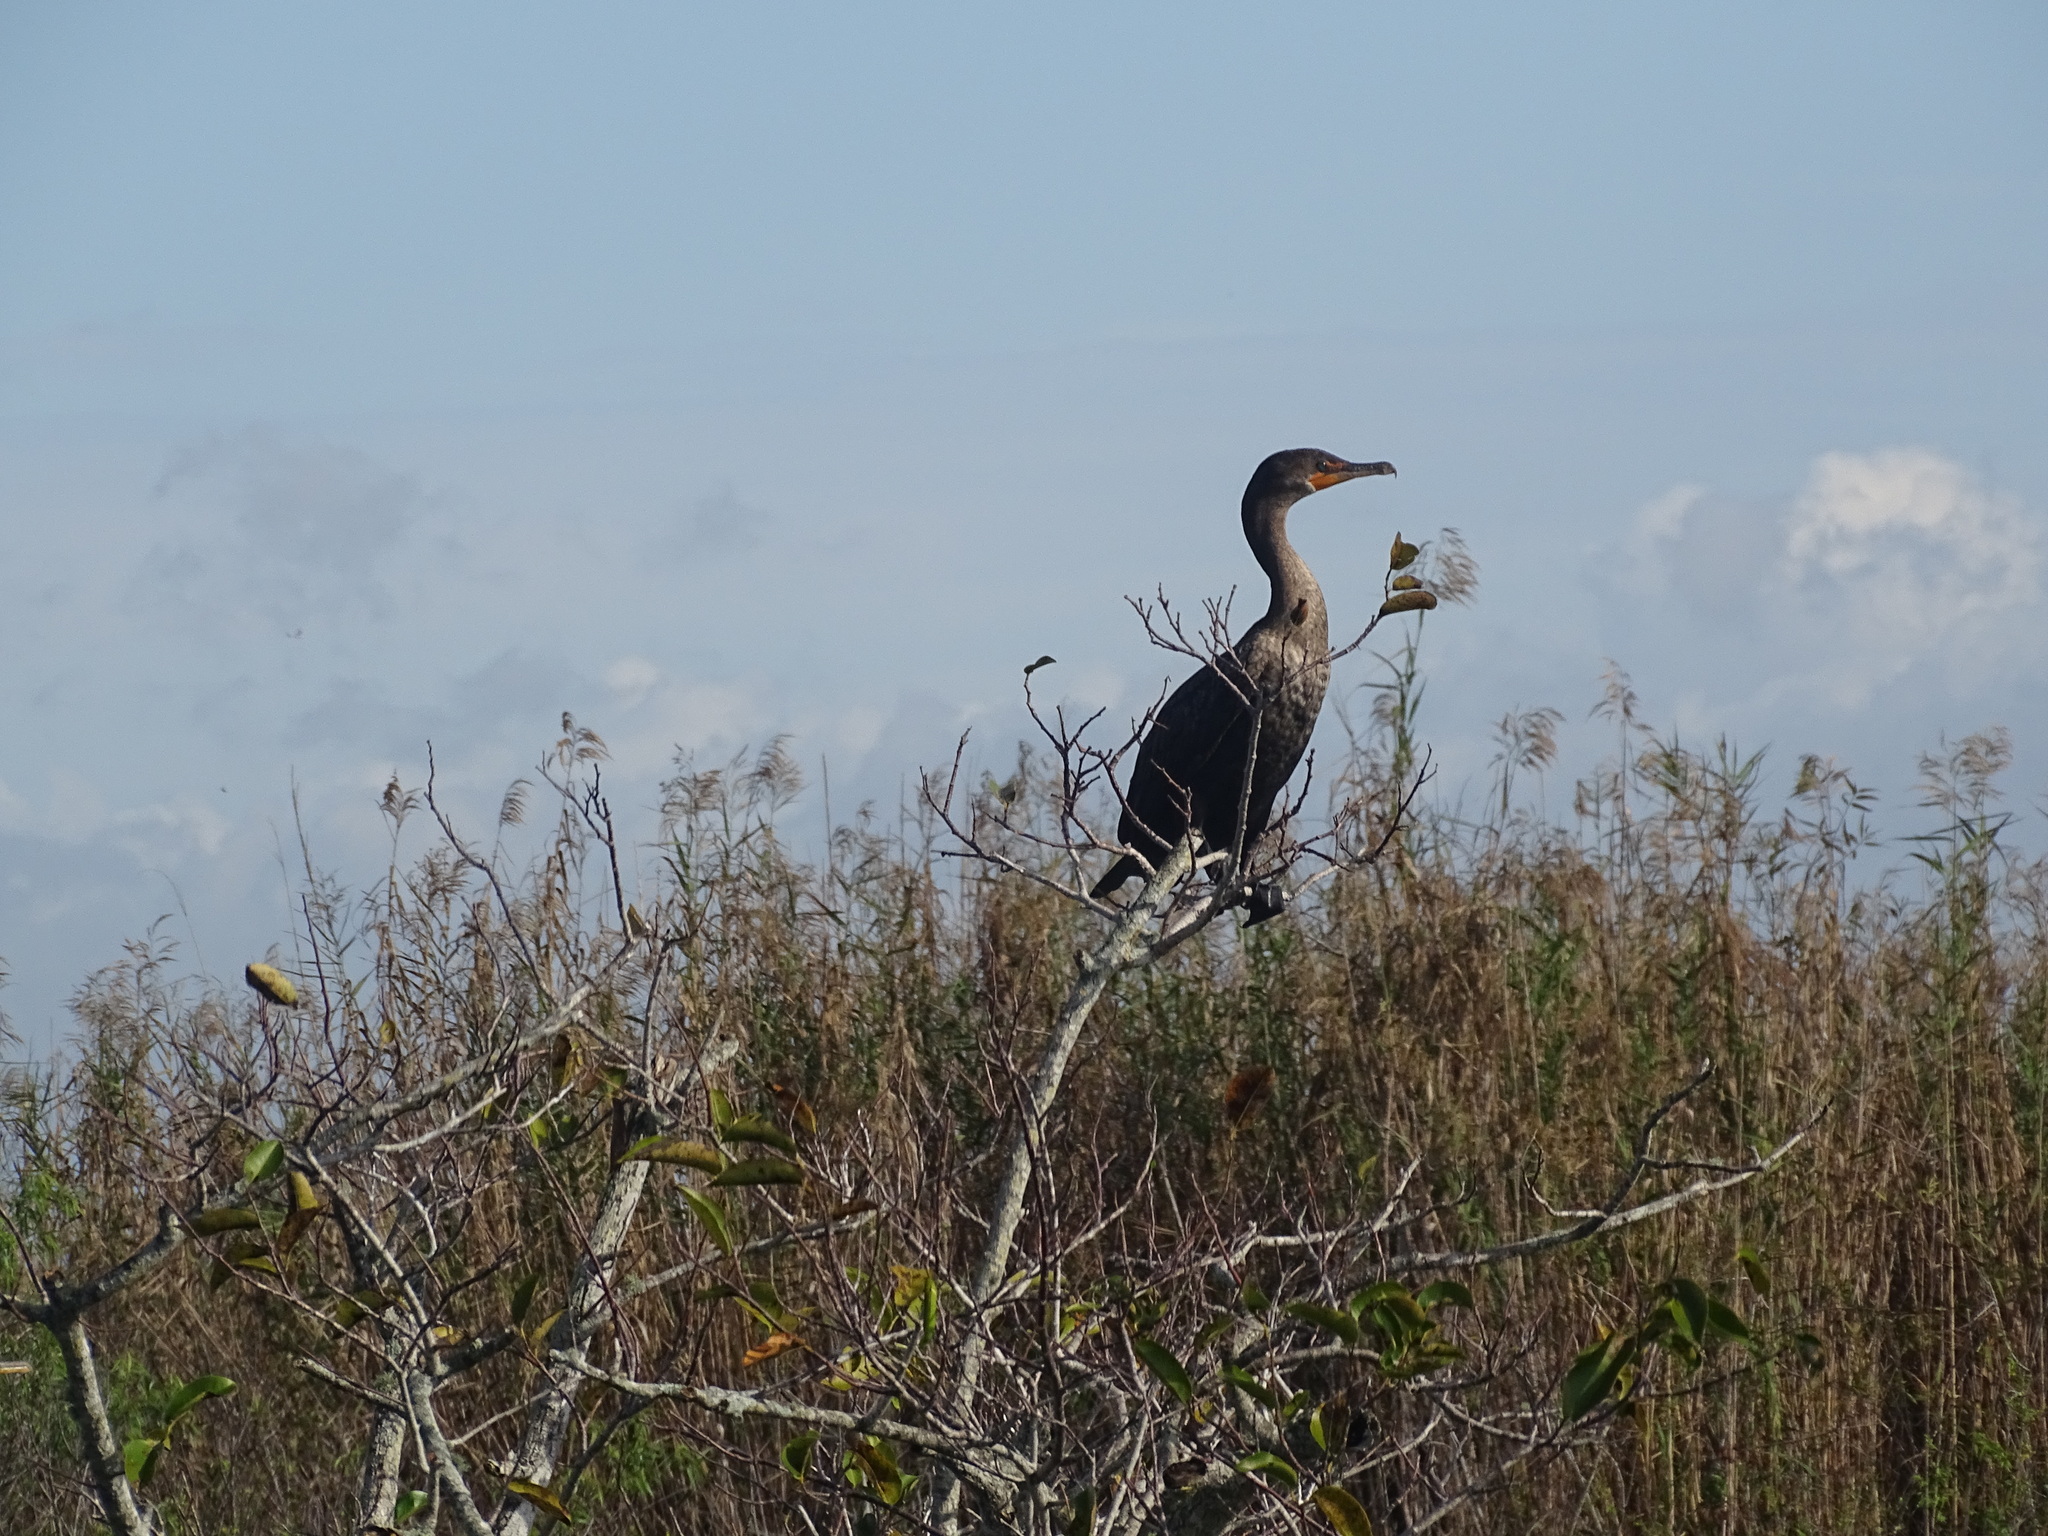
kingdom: Animalia
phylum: Chordata
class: Aves
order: Suliformes
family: Phalacrocoracidae
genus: Phalacrocorax
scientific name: Phalacrocorax auritus
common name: Double-crested cormorant
